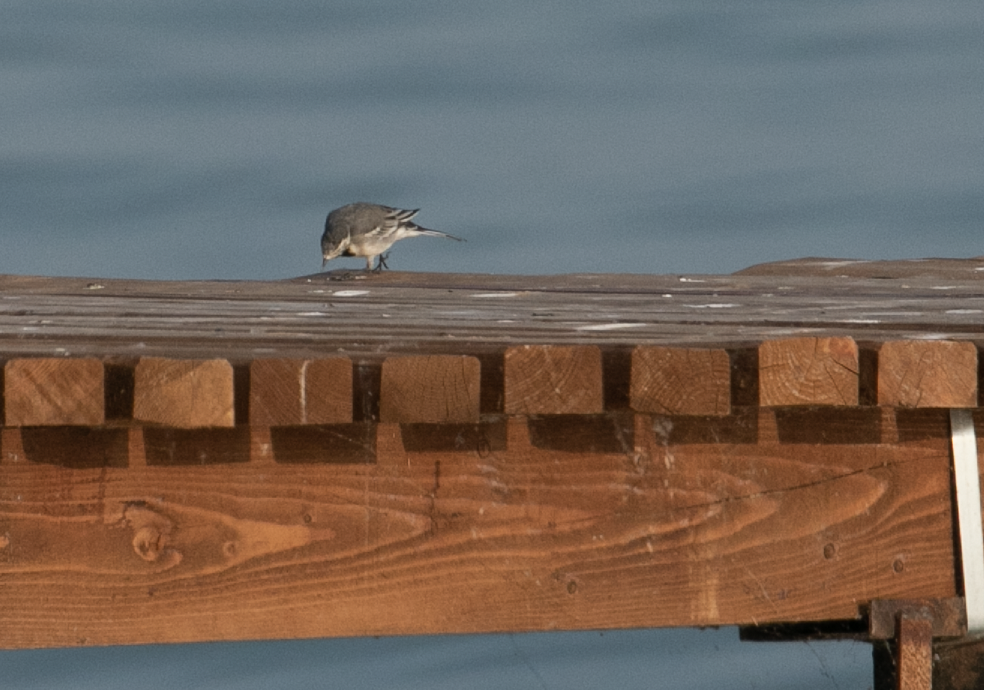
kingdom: Animalia
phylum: Chordata
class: Aves
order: Passeriformes
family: Motacillidae
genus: Motacilla
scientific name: Motacilla alba
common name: White wagtail
